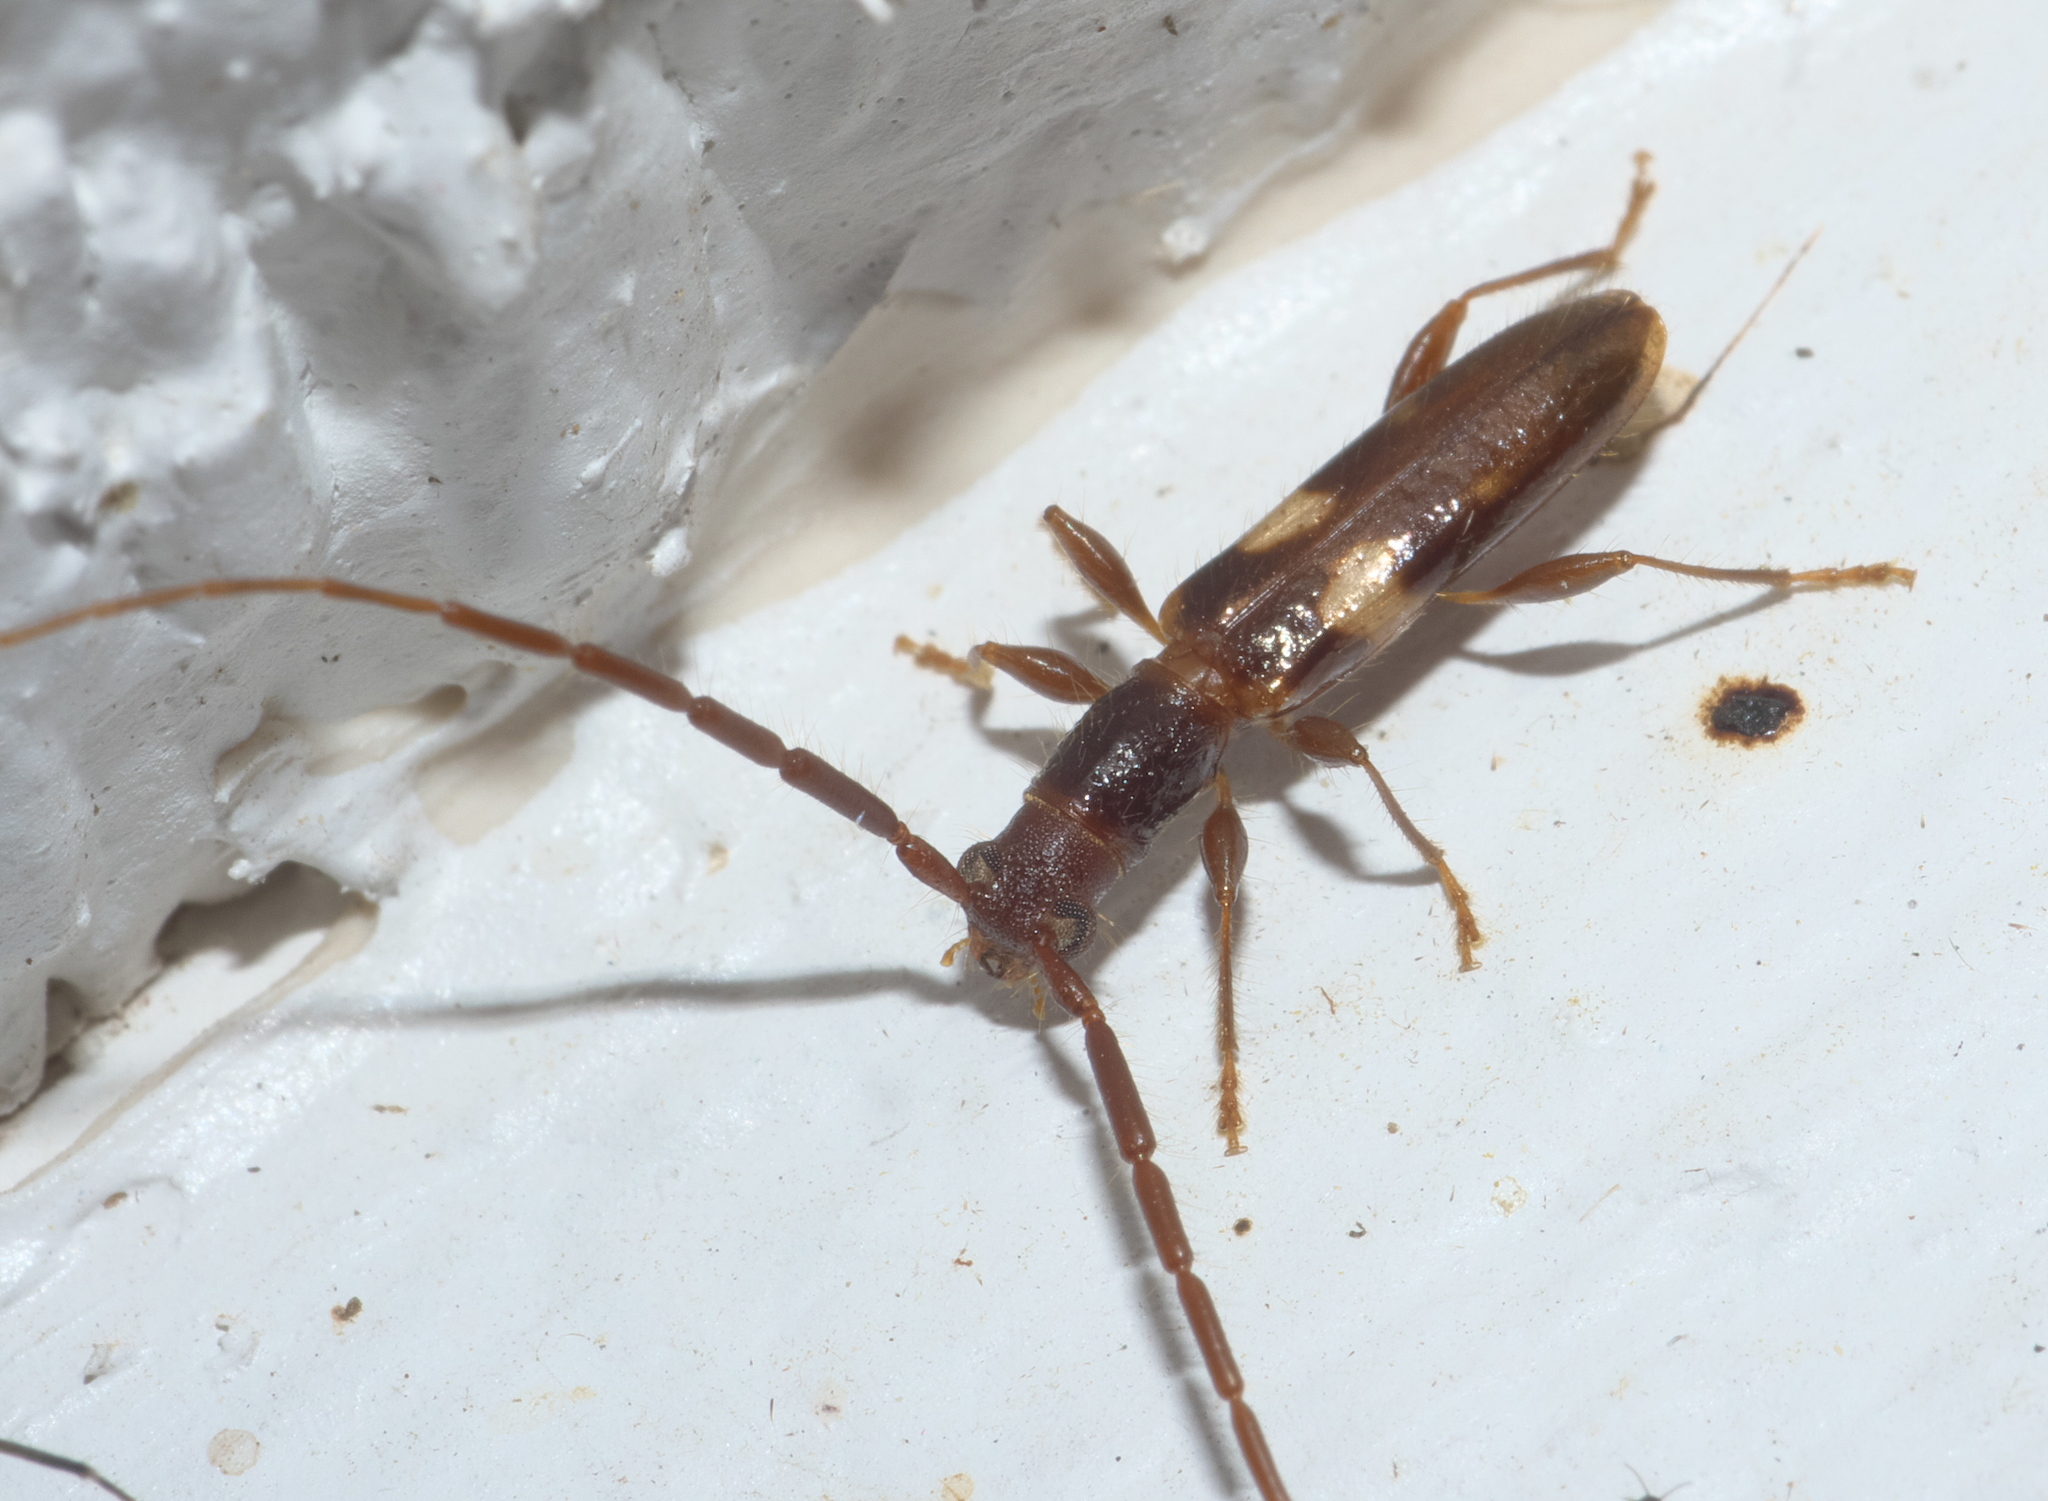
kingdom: Animalia
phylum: Arthropoda
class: Insecta
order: Coleoptera
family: Cerambycidae
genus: Heterachthes
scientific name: Heterachthes quadrimaculatus
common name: Four-spotted hickory borer
